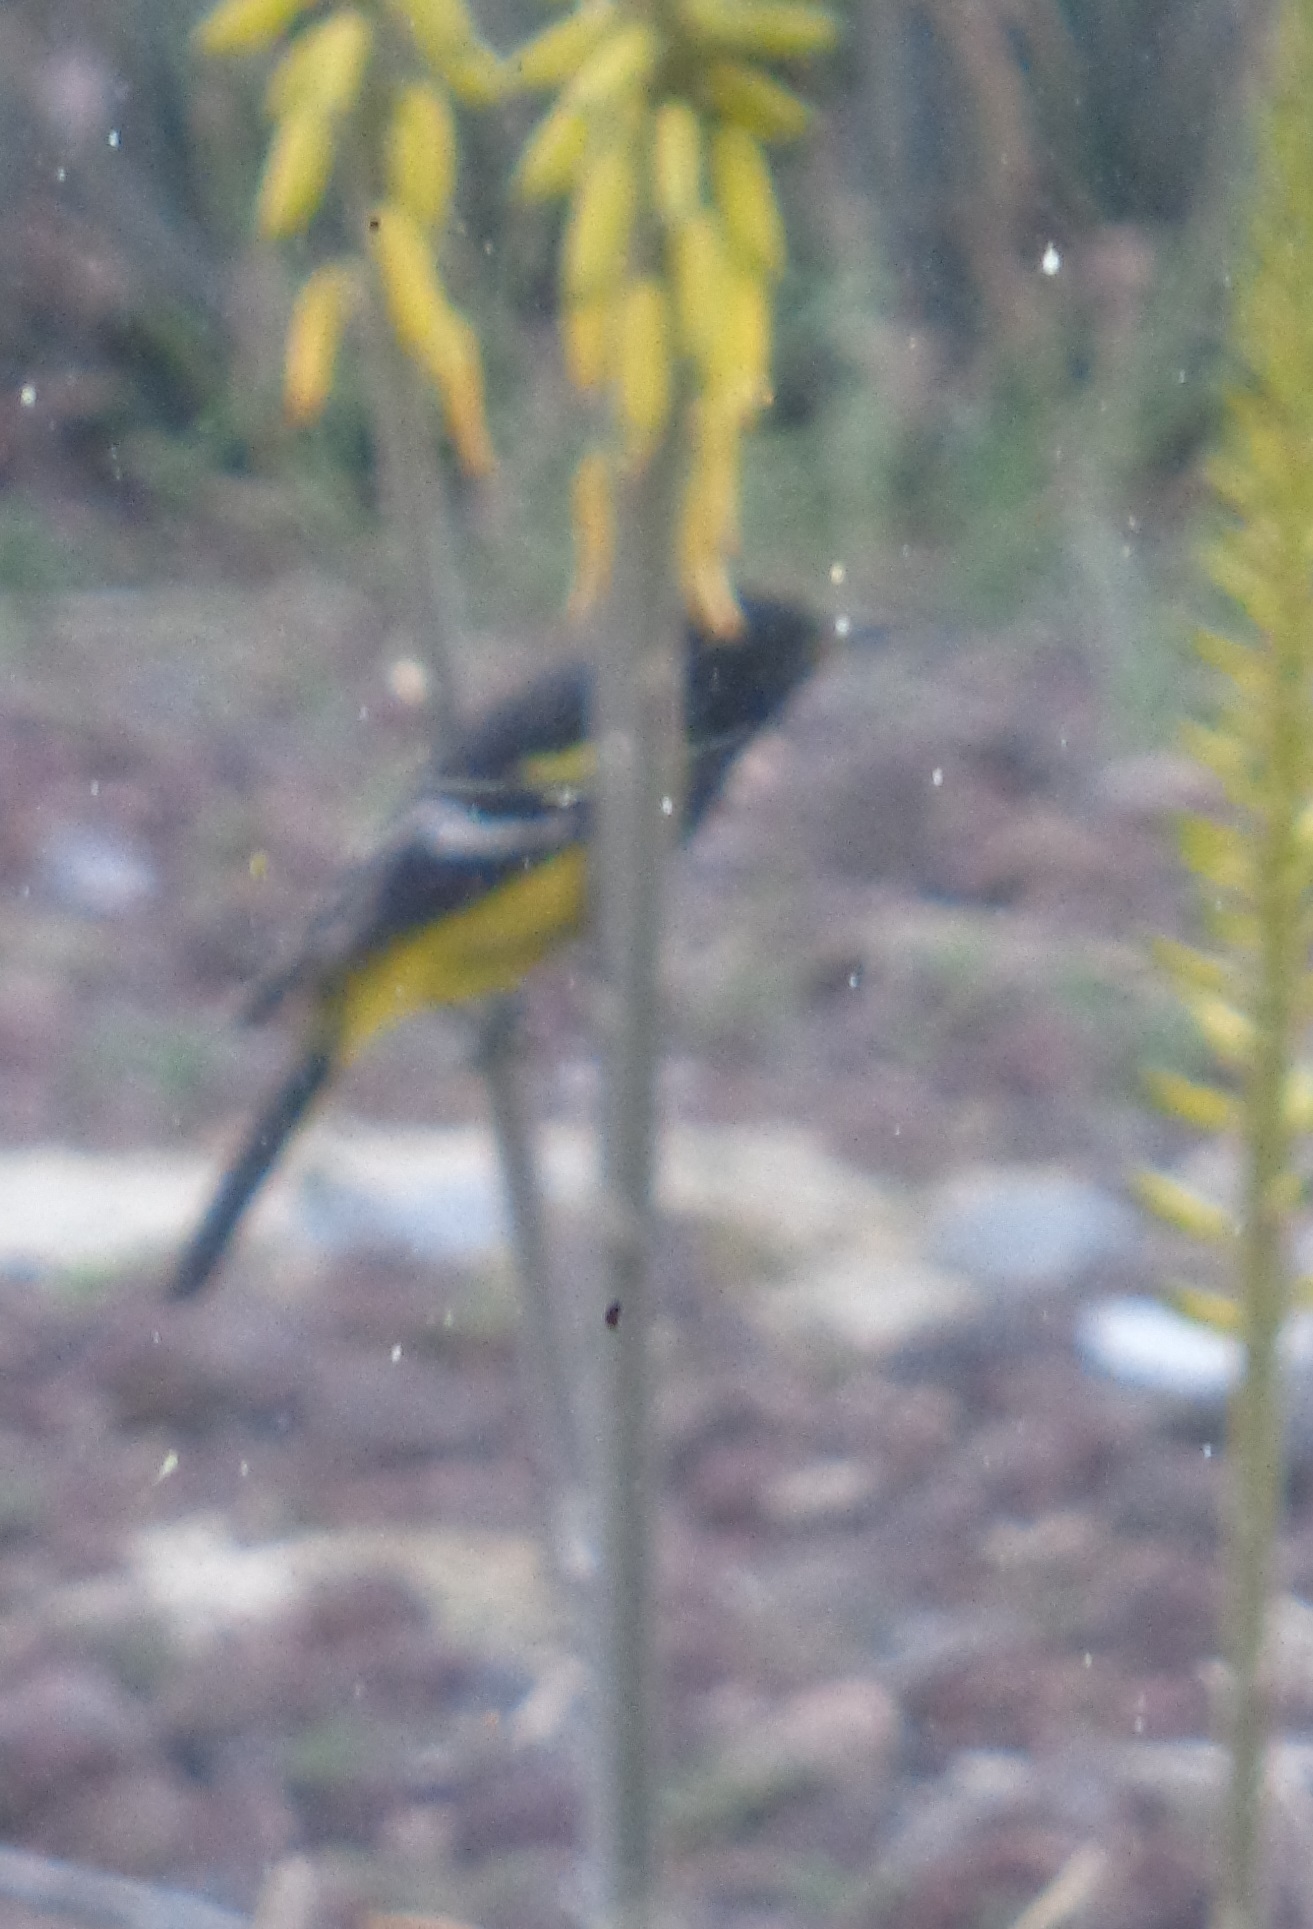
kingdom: Animalia
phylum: Chordata
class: Aves
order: Passeriformes
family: Icteridae
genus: Icterus
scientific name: Icterus parisorum
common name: Scott's oriole
